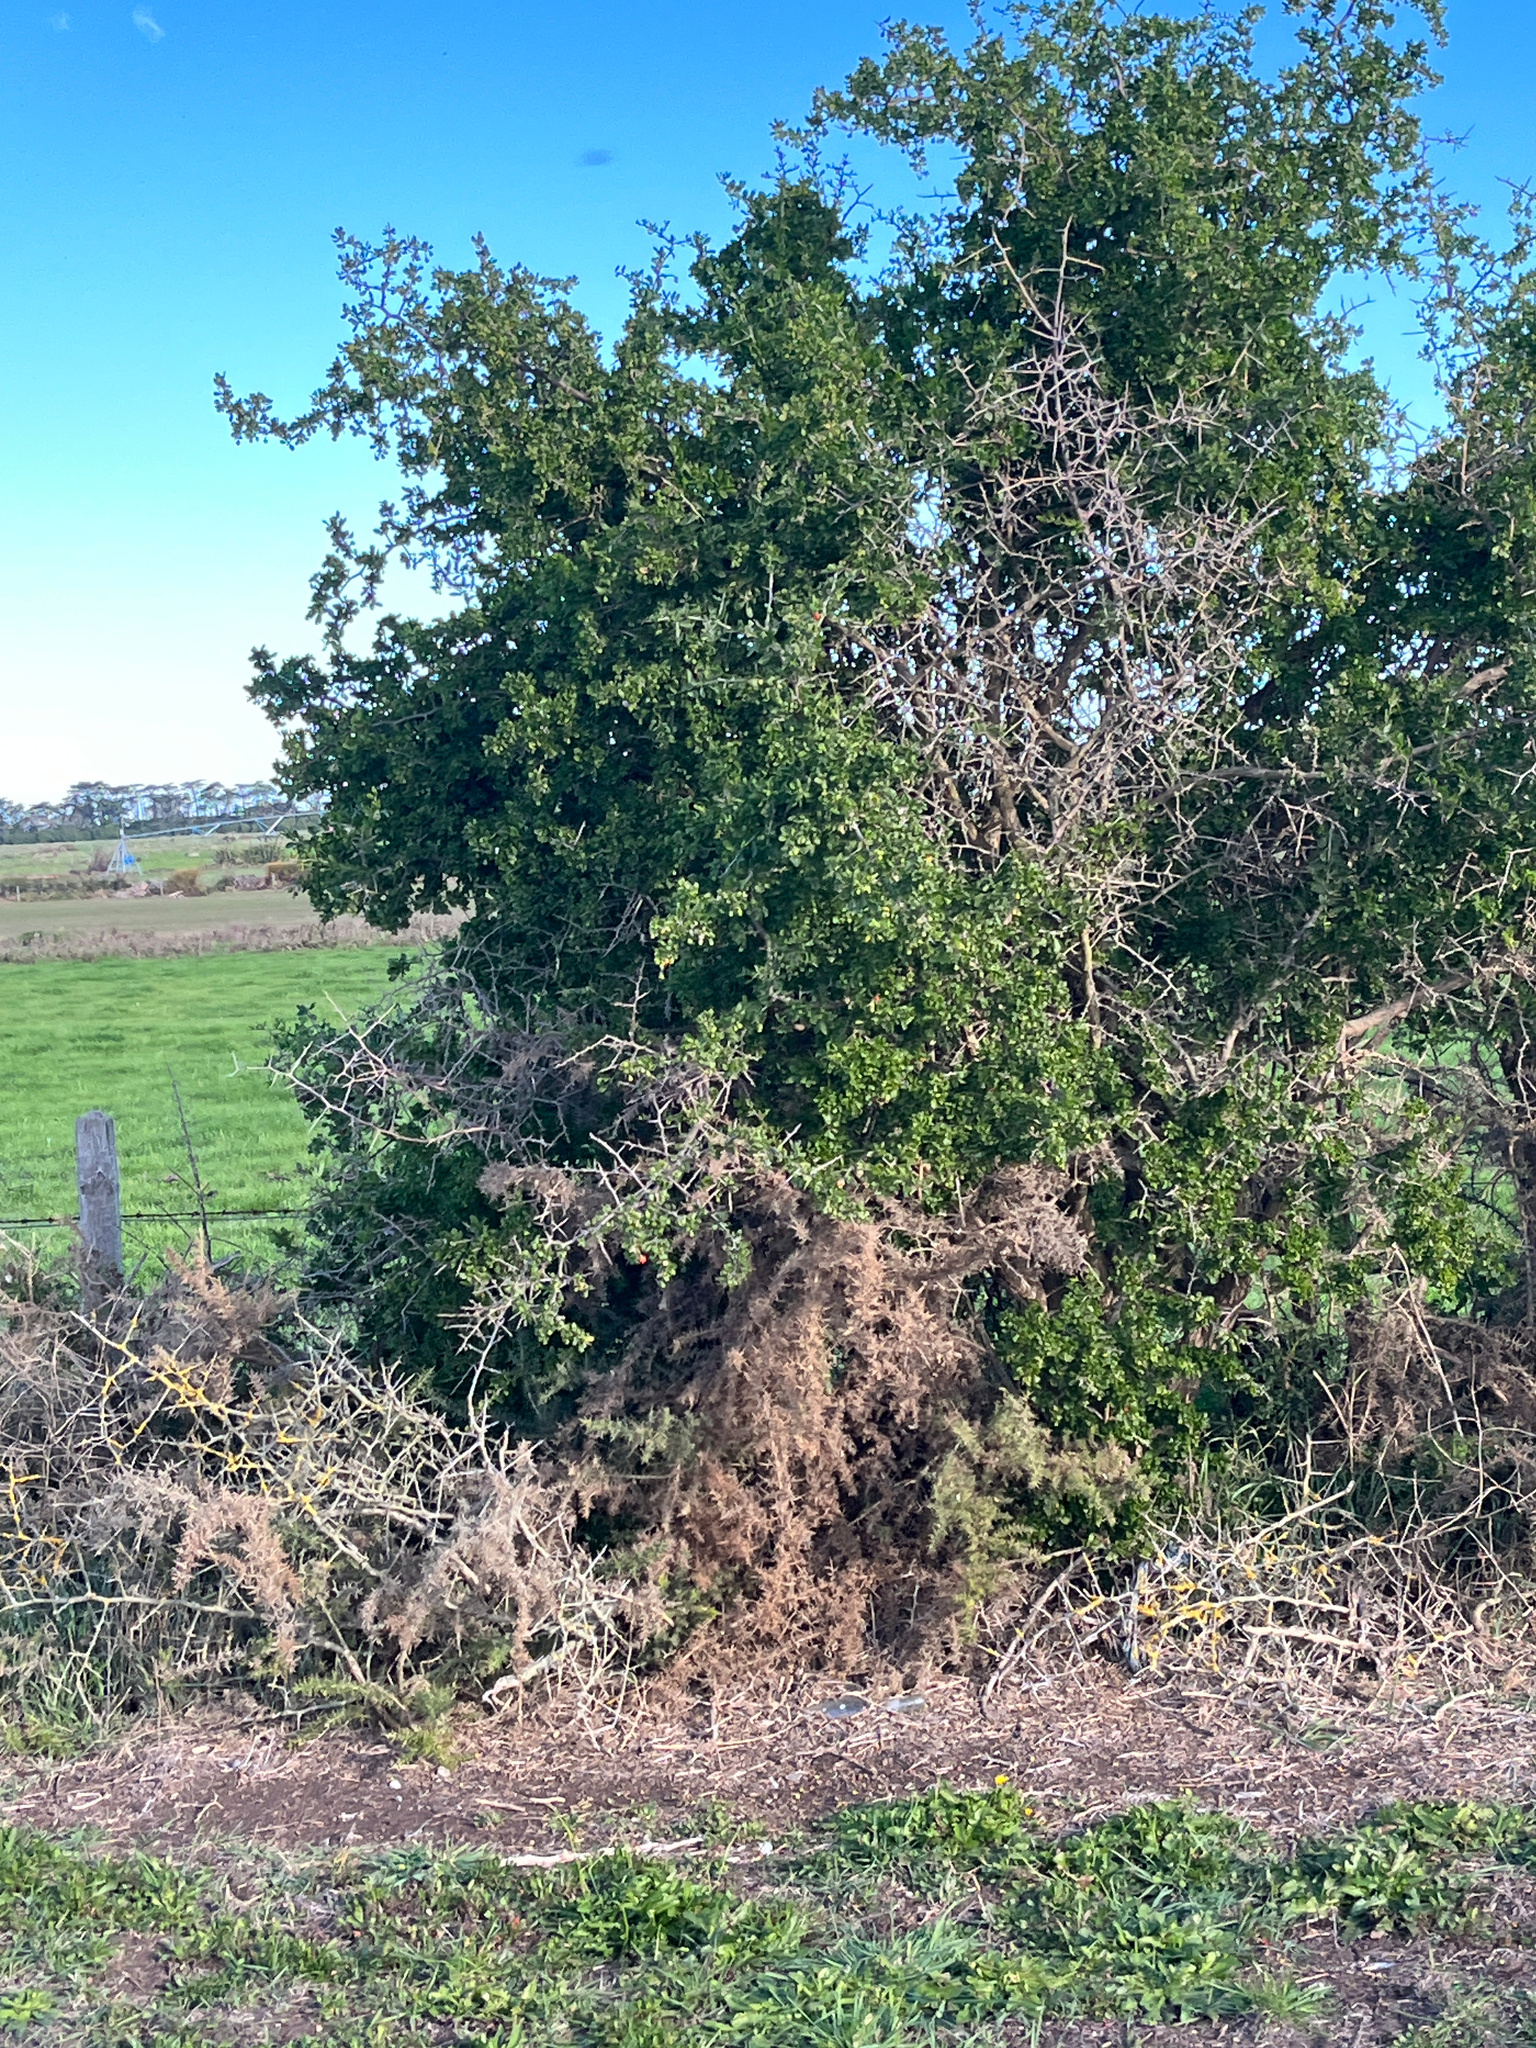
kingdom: Plantae
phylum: Tracheophyta
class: Magnoliopsida
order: Solanales
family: Solanaceae
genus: Lycium
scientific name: Lycium ferocissimum
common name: African boxthorn
